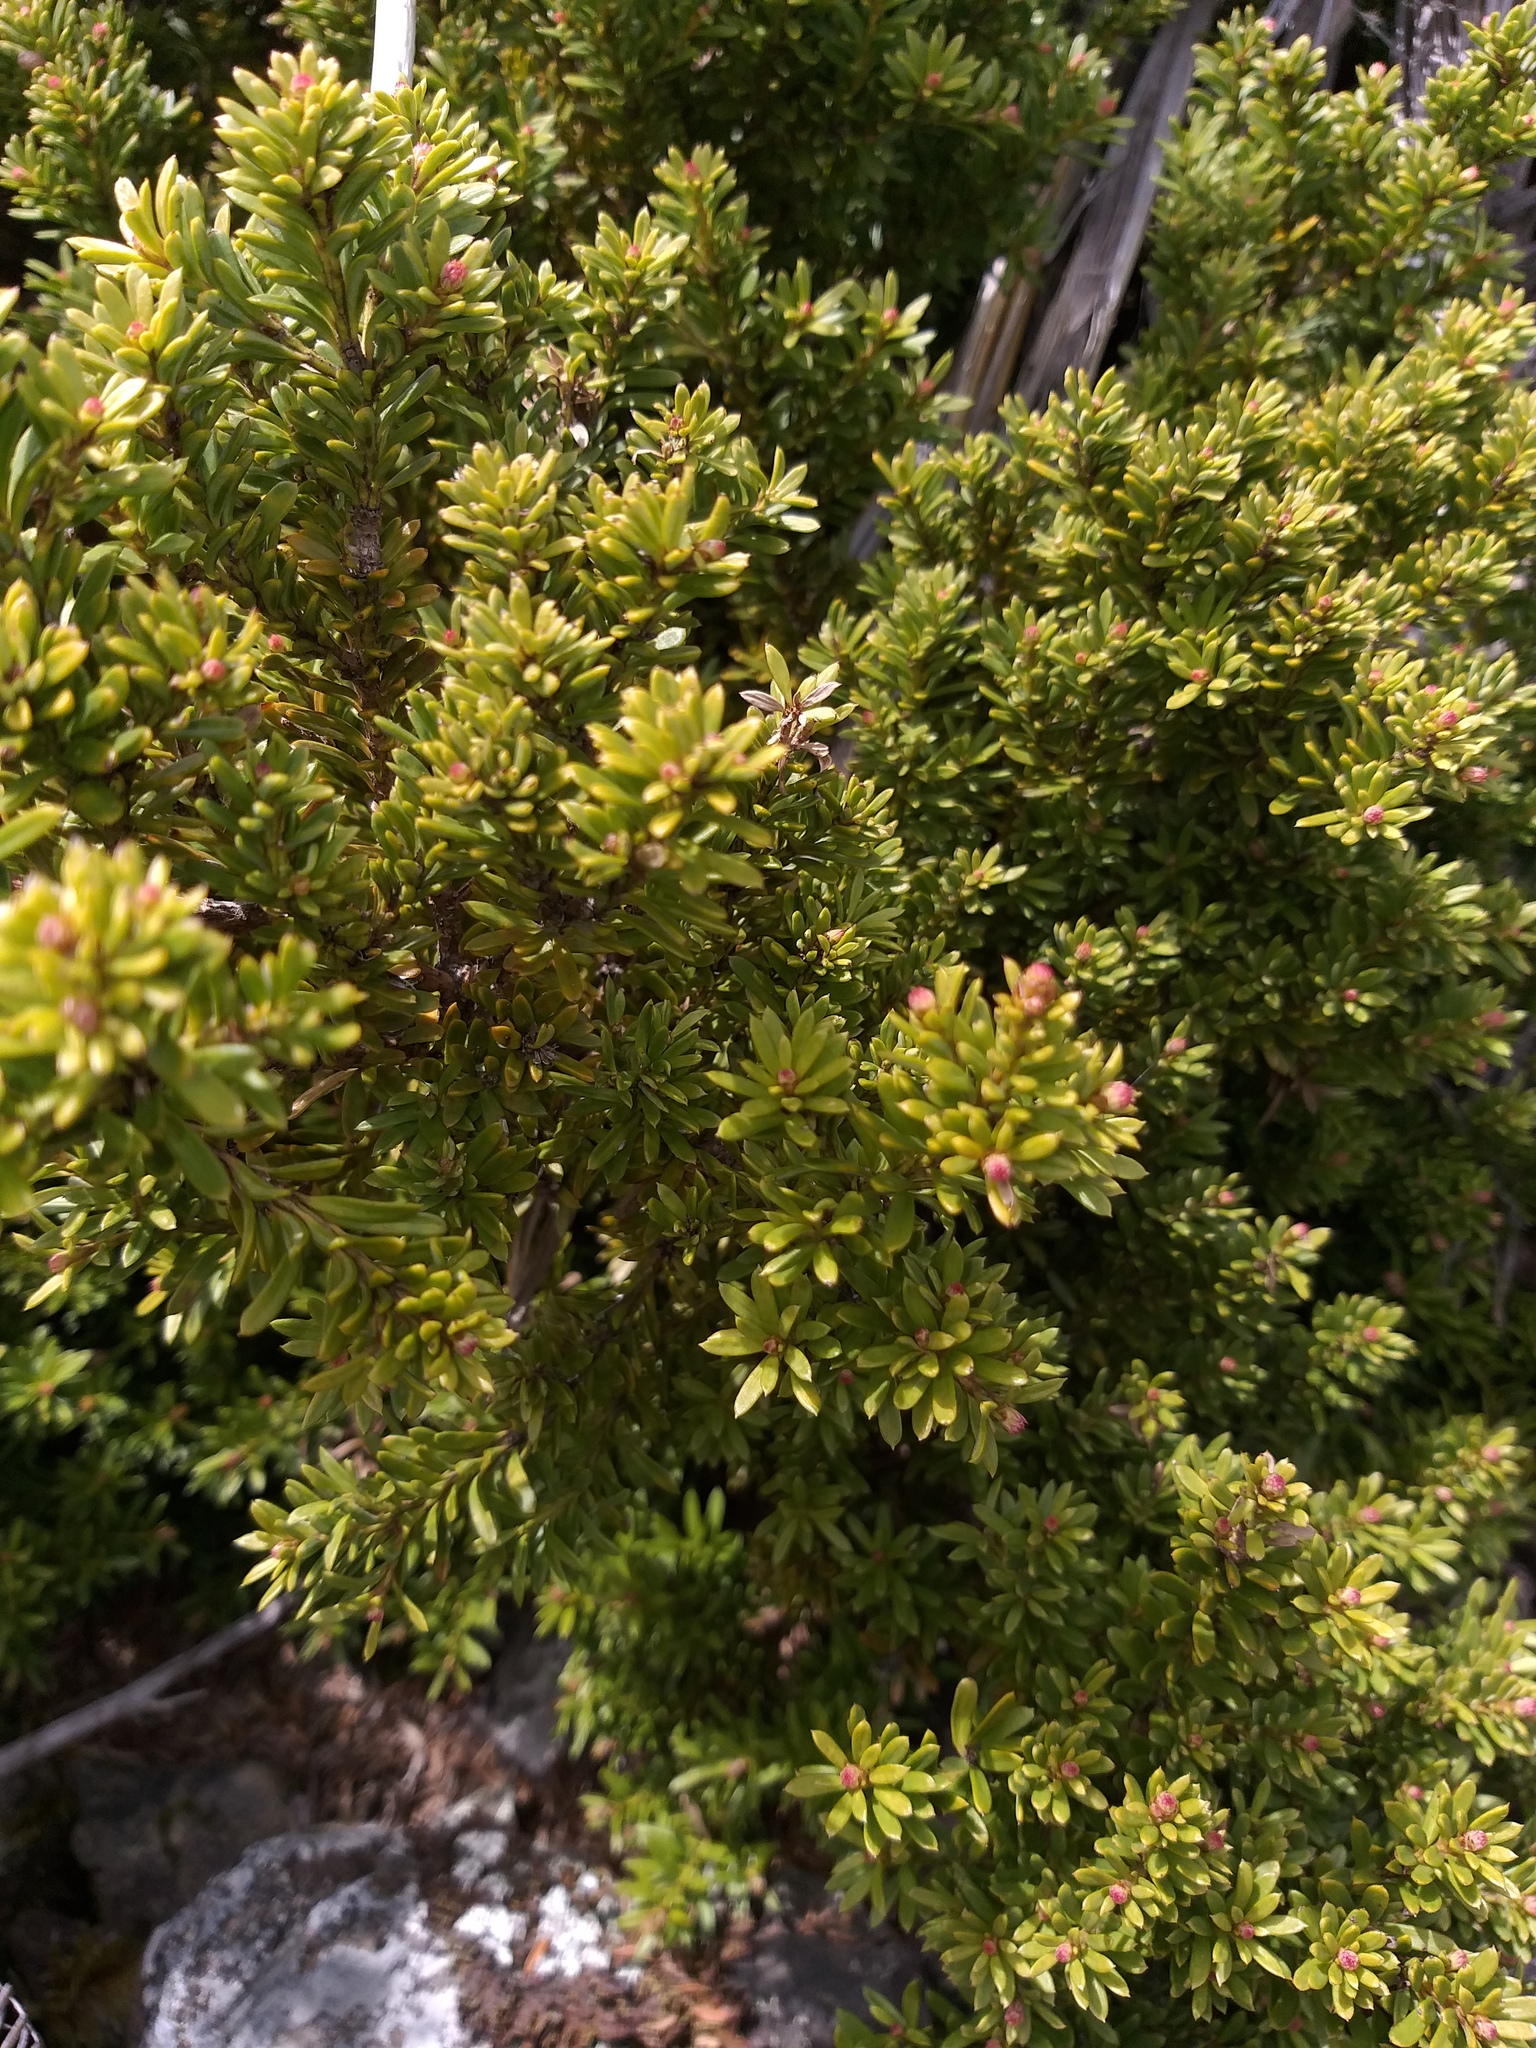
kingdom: Plantae
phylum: Tracheophyta
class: Pinopsida
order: Pinales
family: Podocarpaceae
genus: Podocarpus
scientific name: Podocarpus nivalis
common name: Alpine totara
